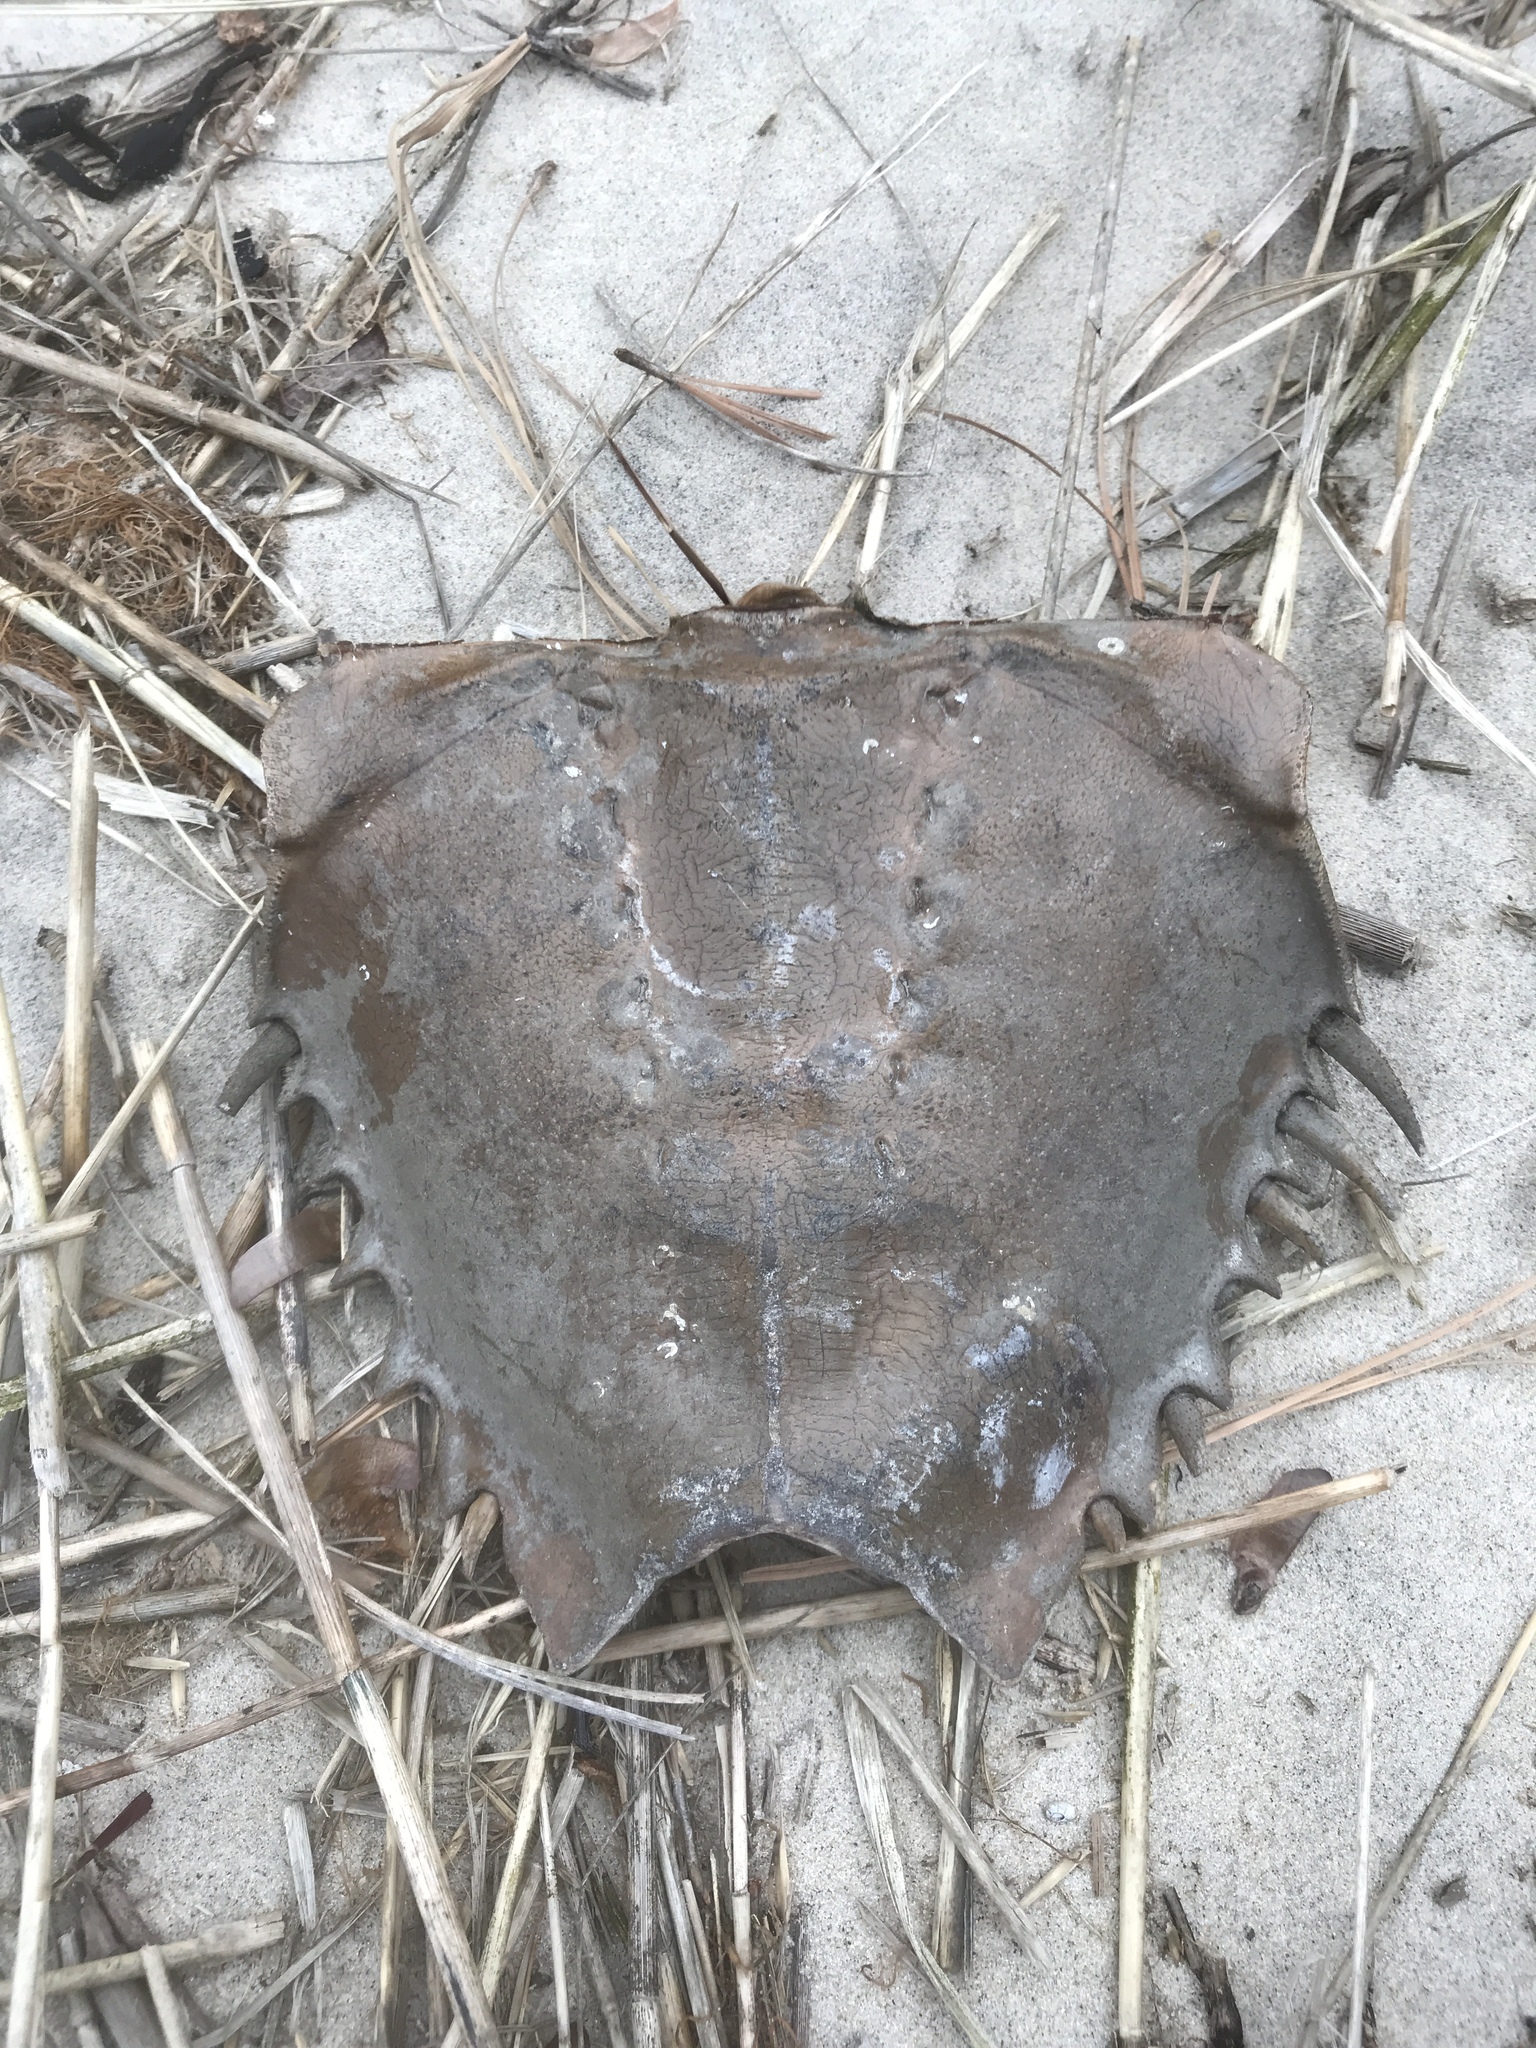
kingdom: Animalia
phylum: Arthropoda
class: Merostomata
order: Xiphosurida
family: Limulidae
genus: Limulus
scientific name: Limulus polyphemus
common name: Horseshoe crab
